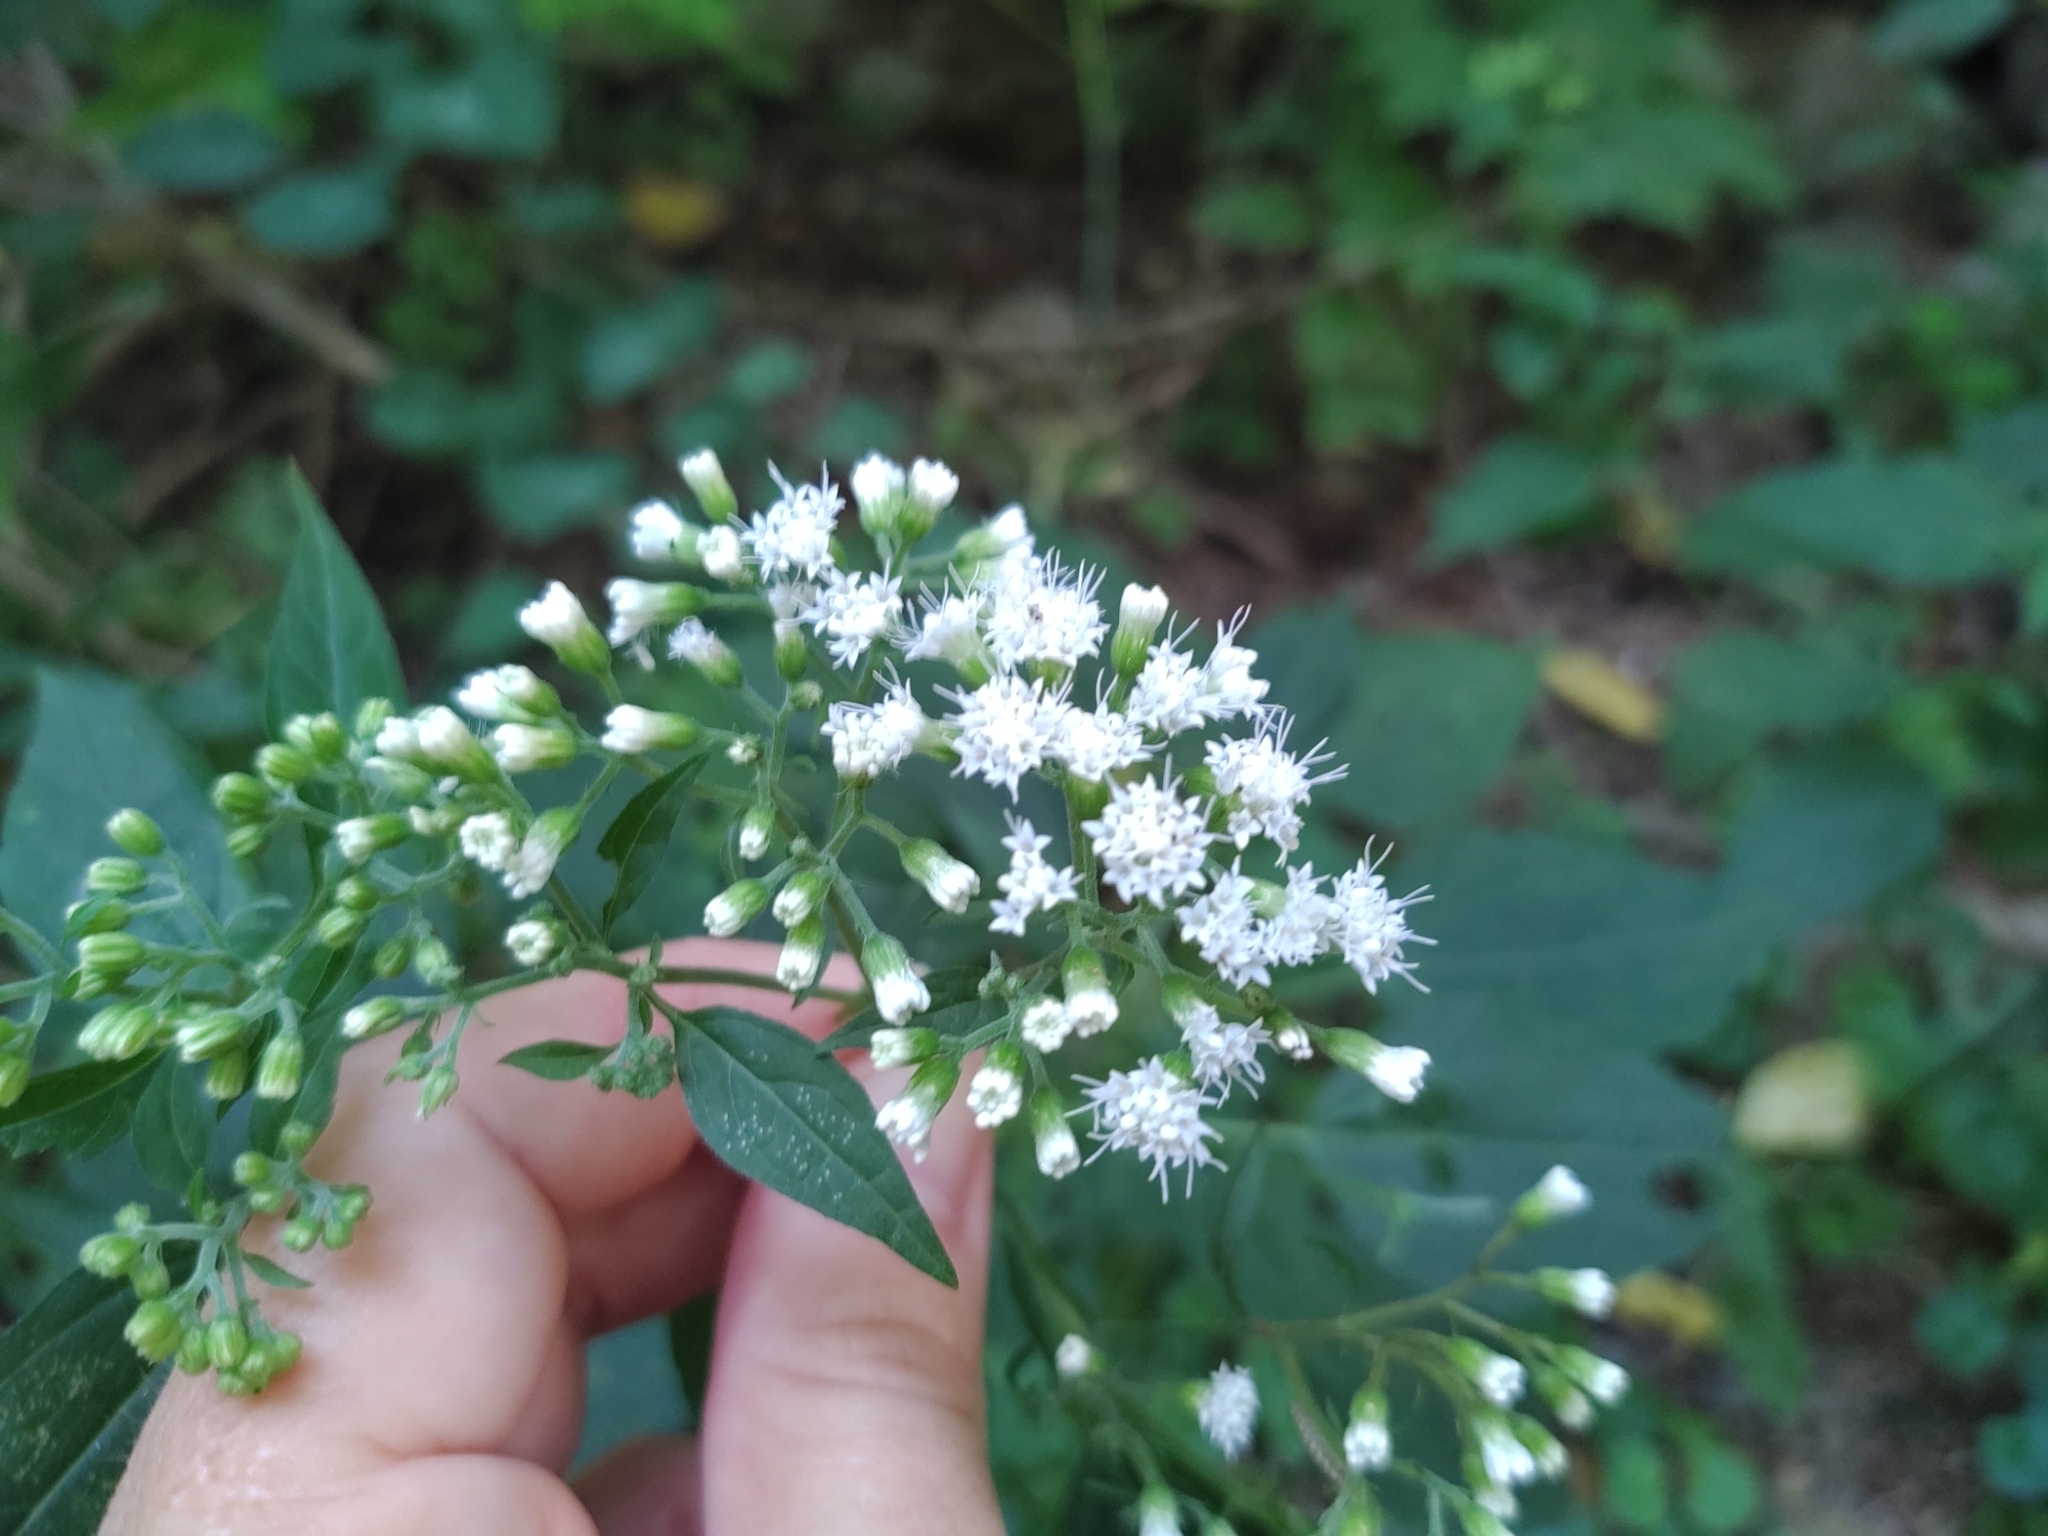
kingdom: Plantae
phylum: Tracheophyta
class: Magnoliopsida
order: Asterales
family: Asteraceae
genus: Ageratina
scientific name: Ageratina altissima
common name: White snakeroot
